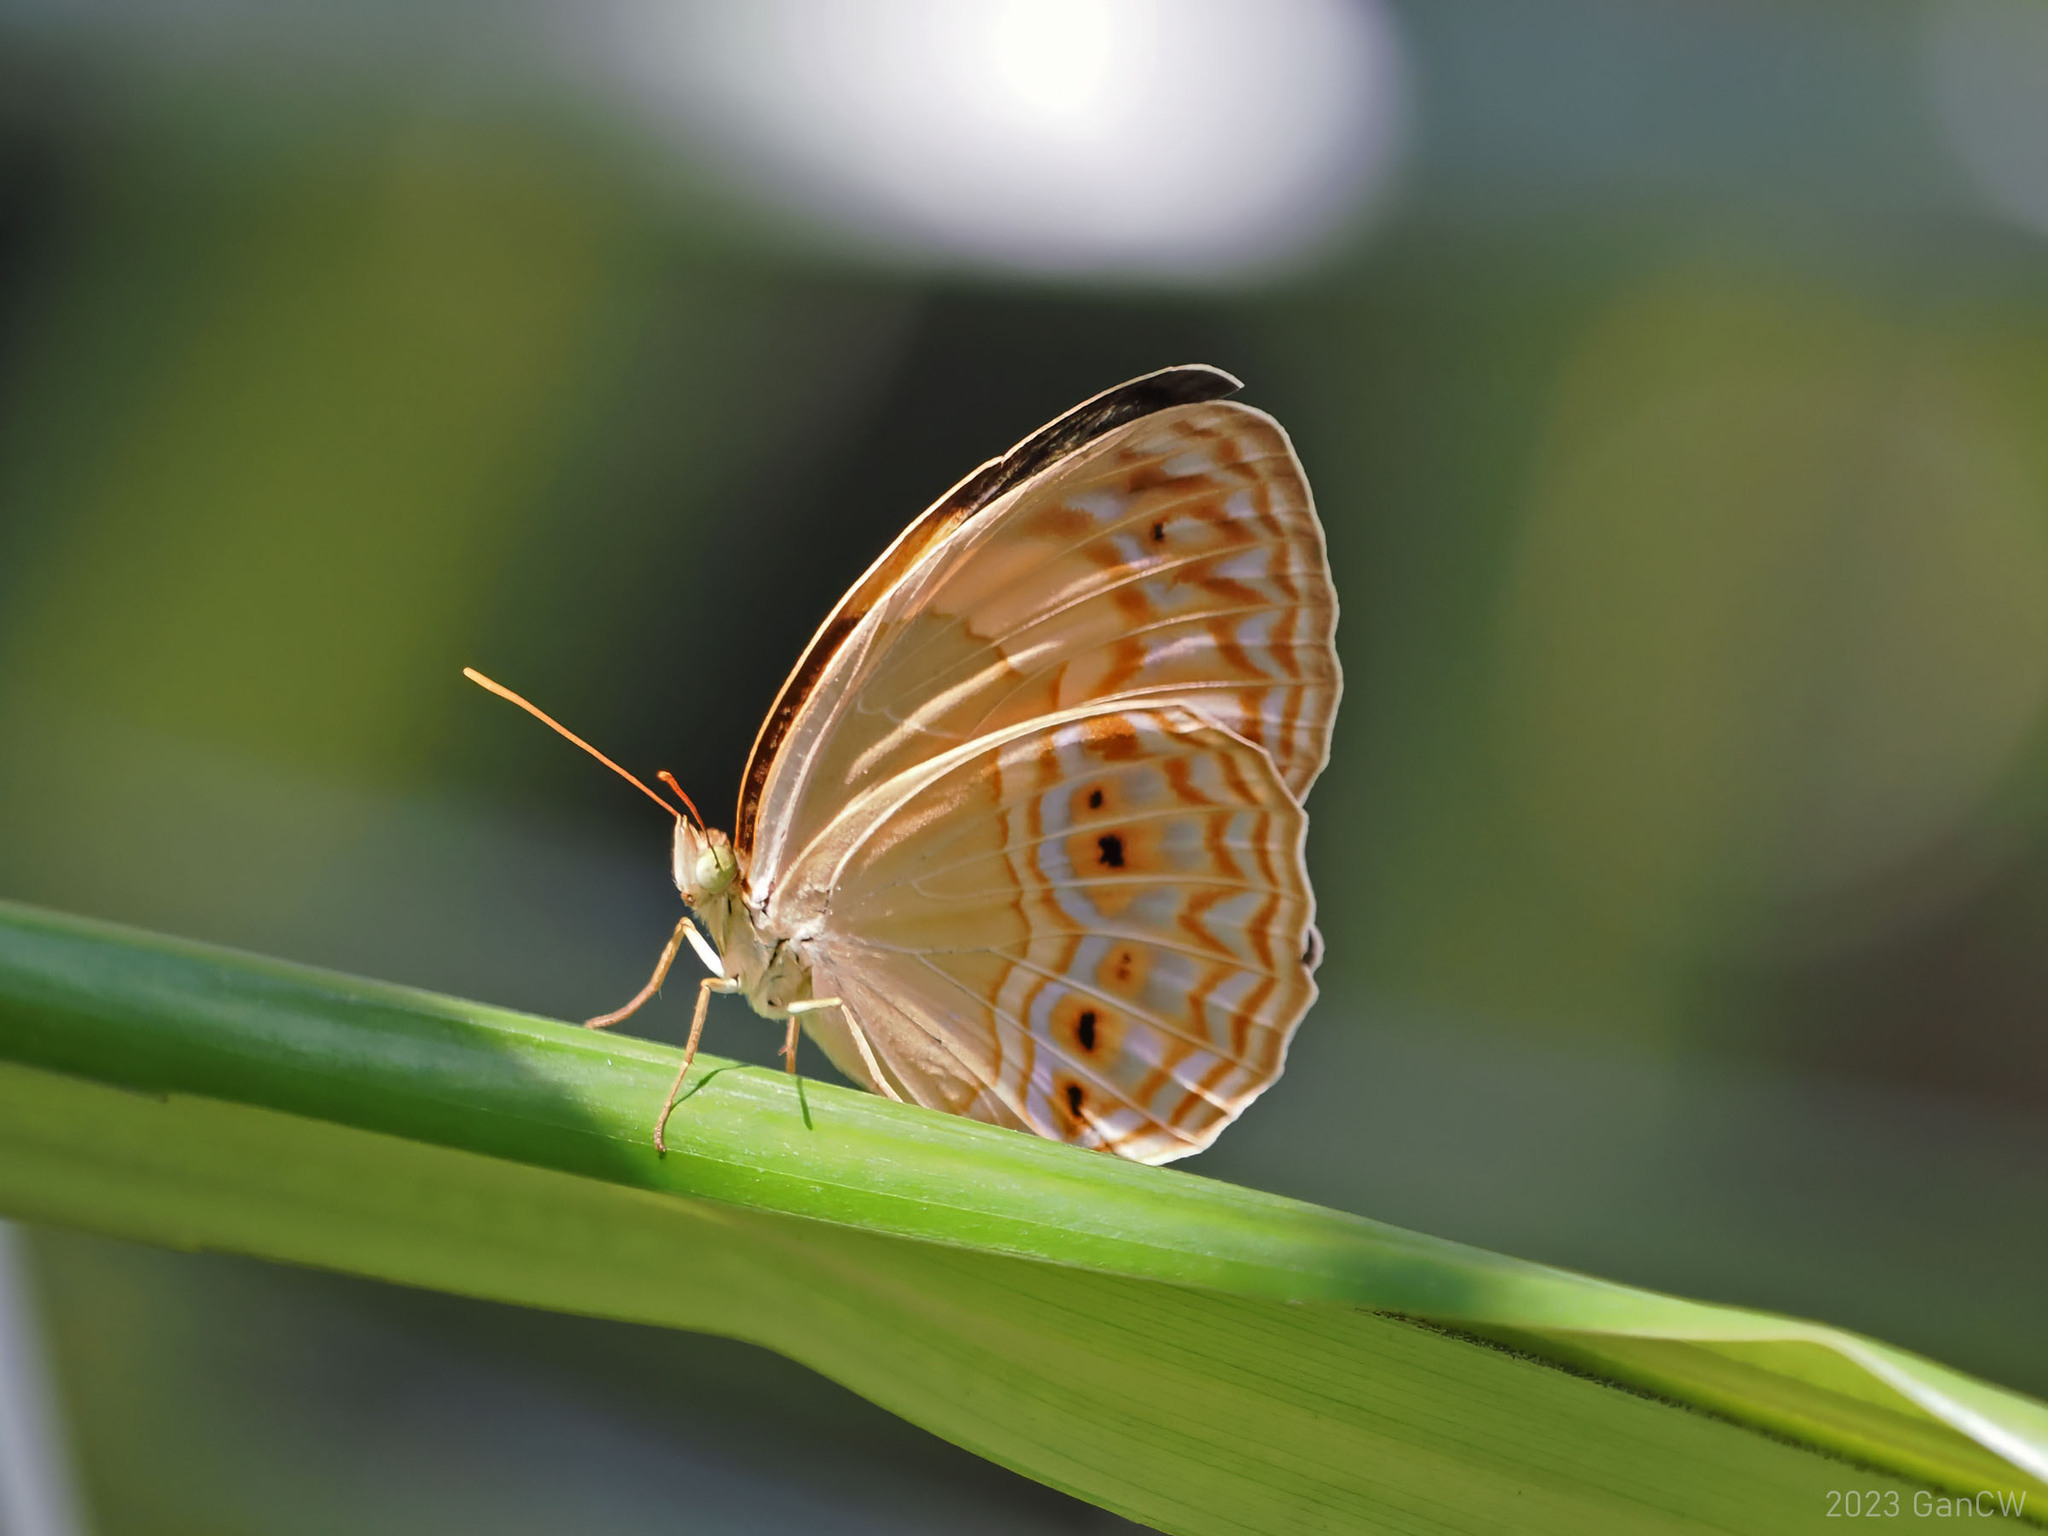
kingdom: Animalia
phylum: Arthropoda
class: Insecta
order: Lepidoptera
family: Nymphalidae
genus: Cupha
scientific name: Cupha maeonides
